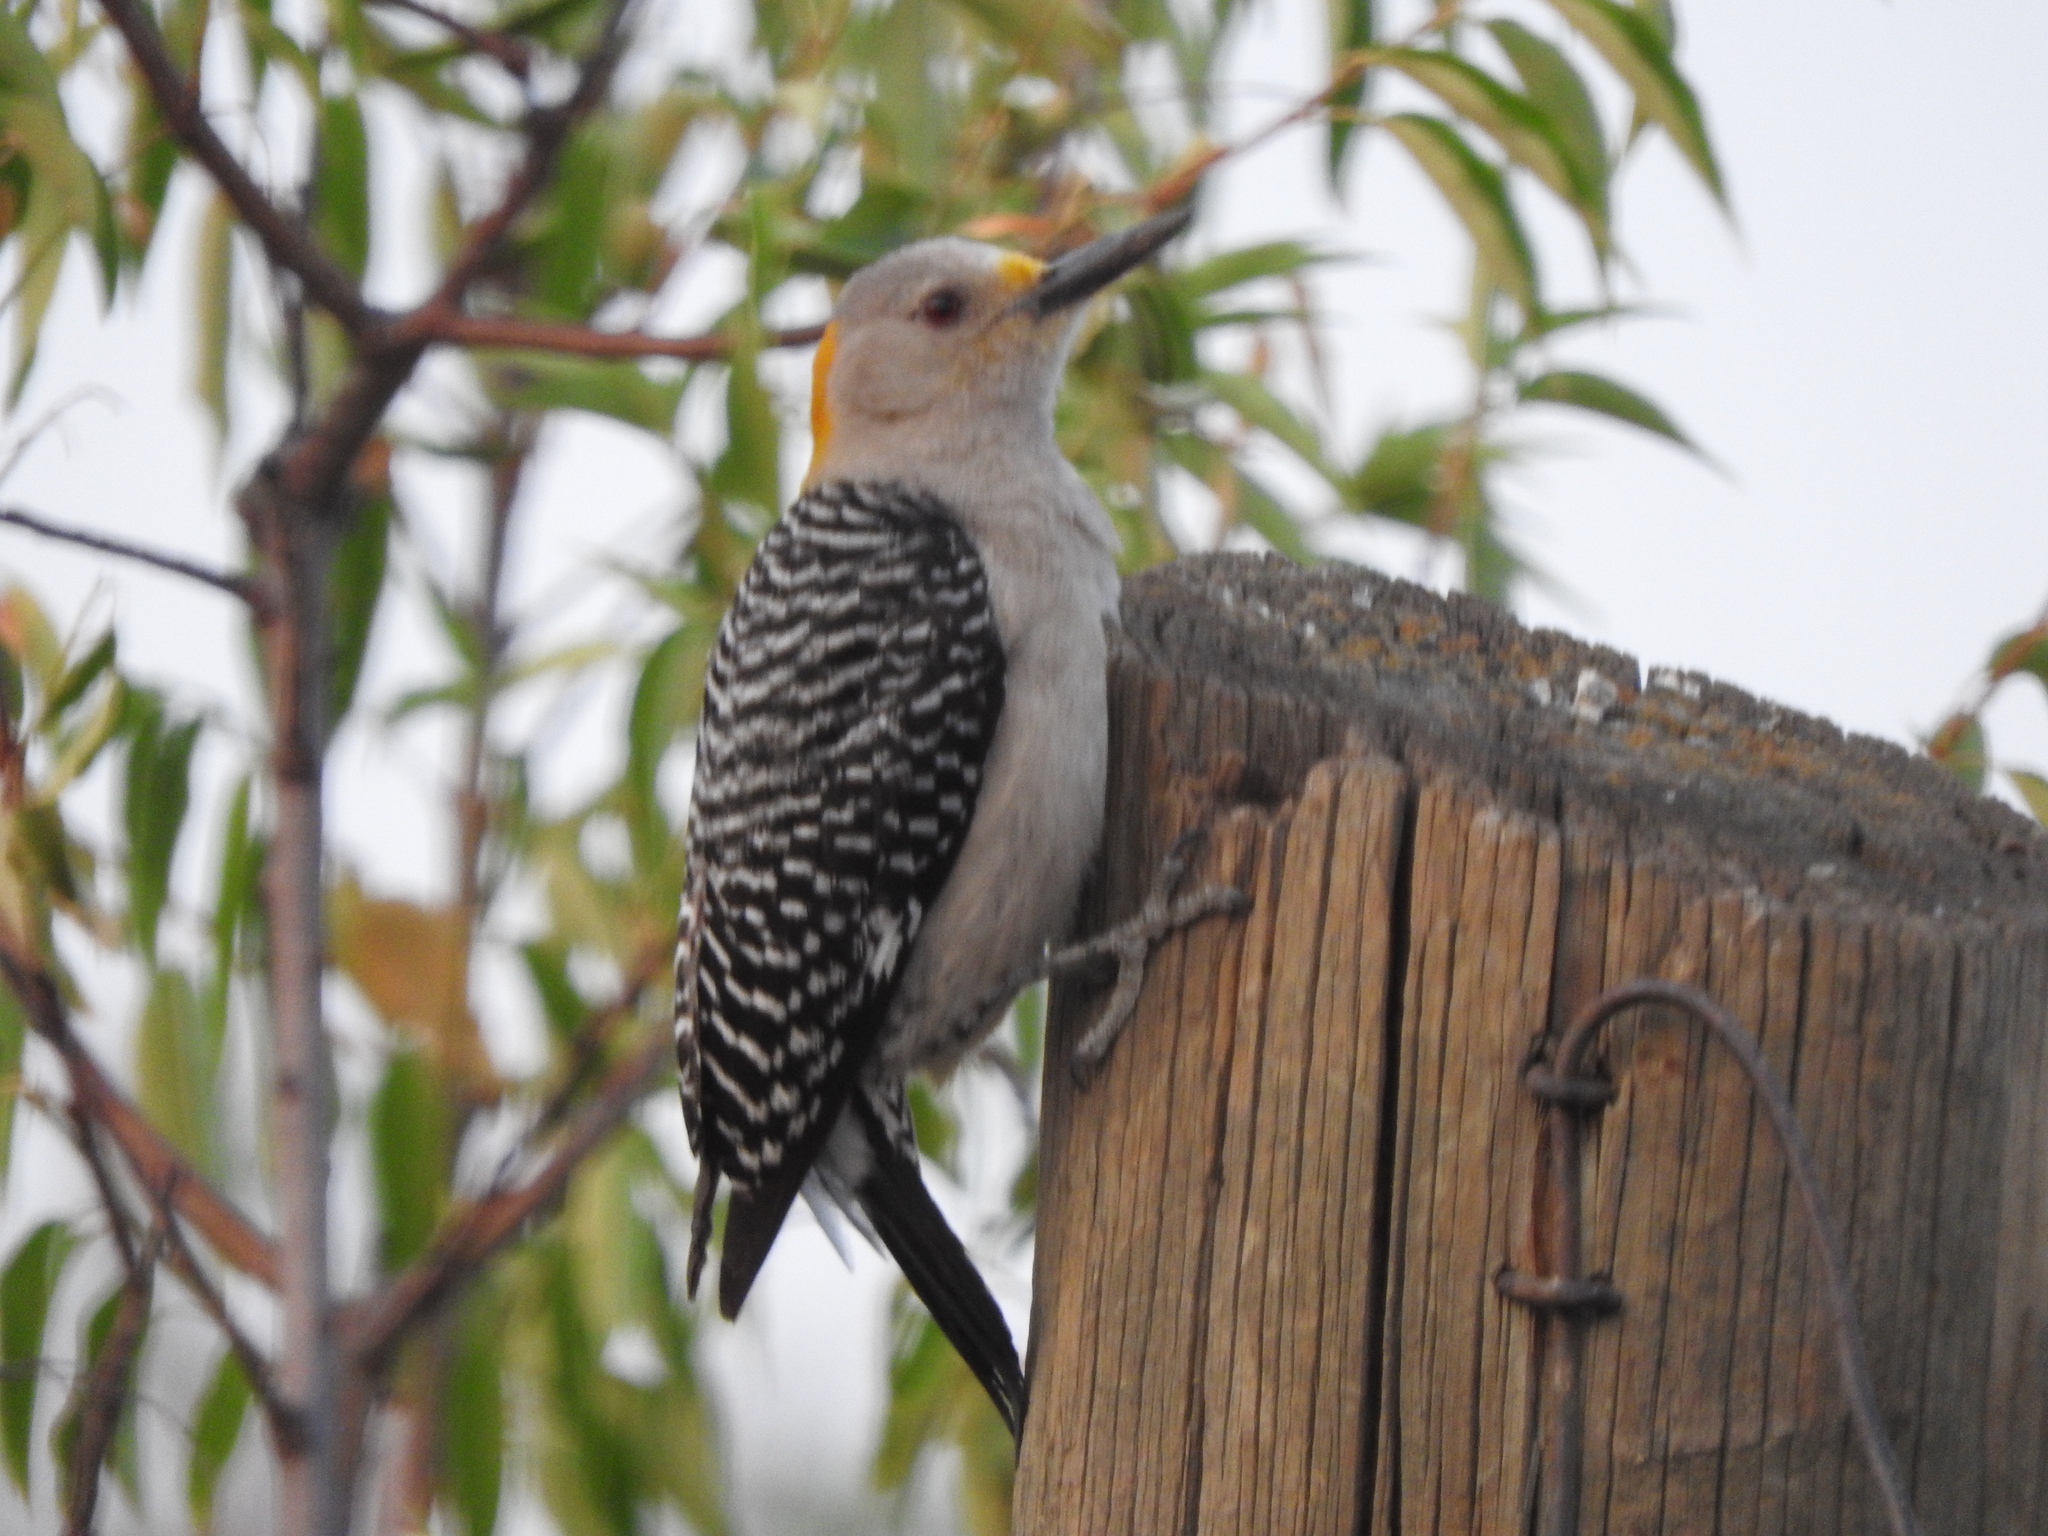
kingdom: Animalia
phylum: Chordata
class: Aves
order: Piciformes
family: Picidae
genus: Melanerpes
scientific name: Melanerpes aurifrons
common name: Golden-fronted woodpecker
